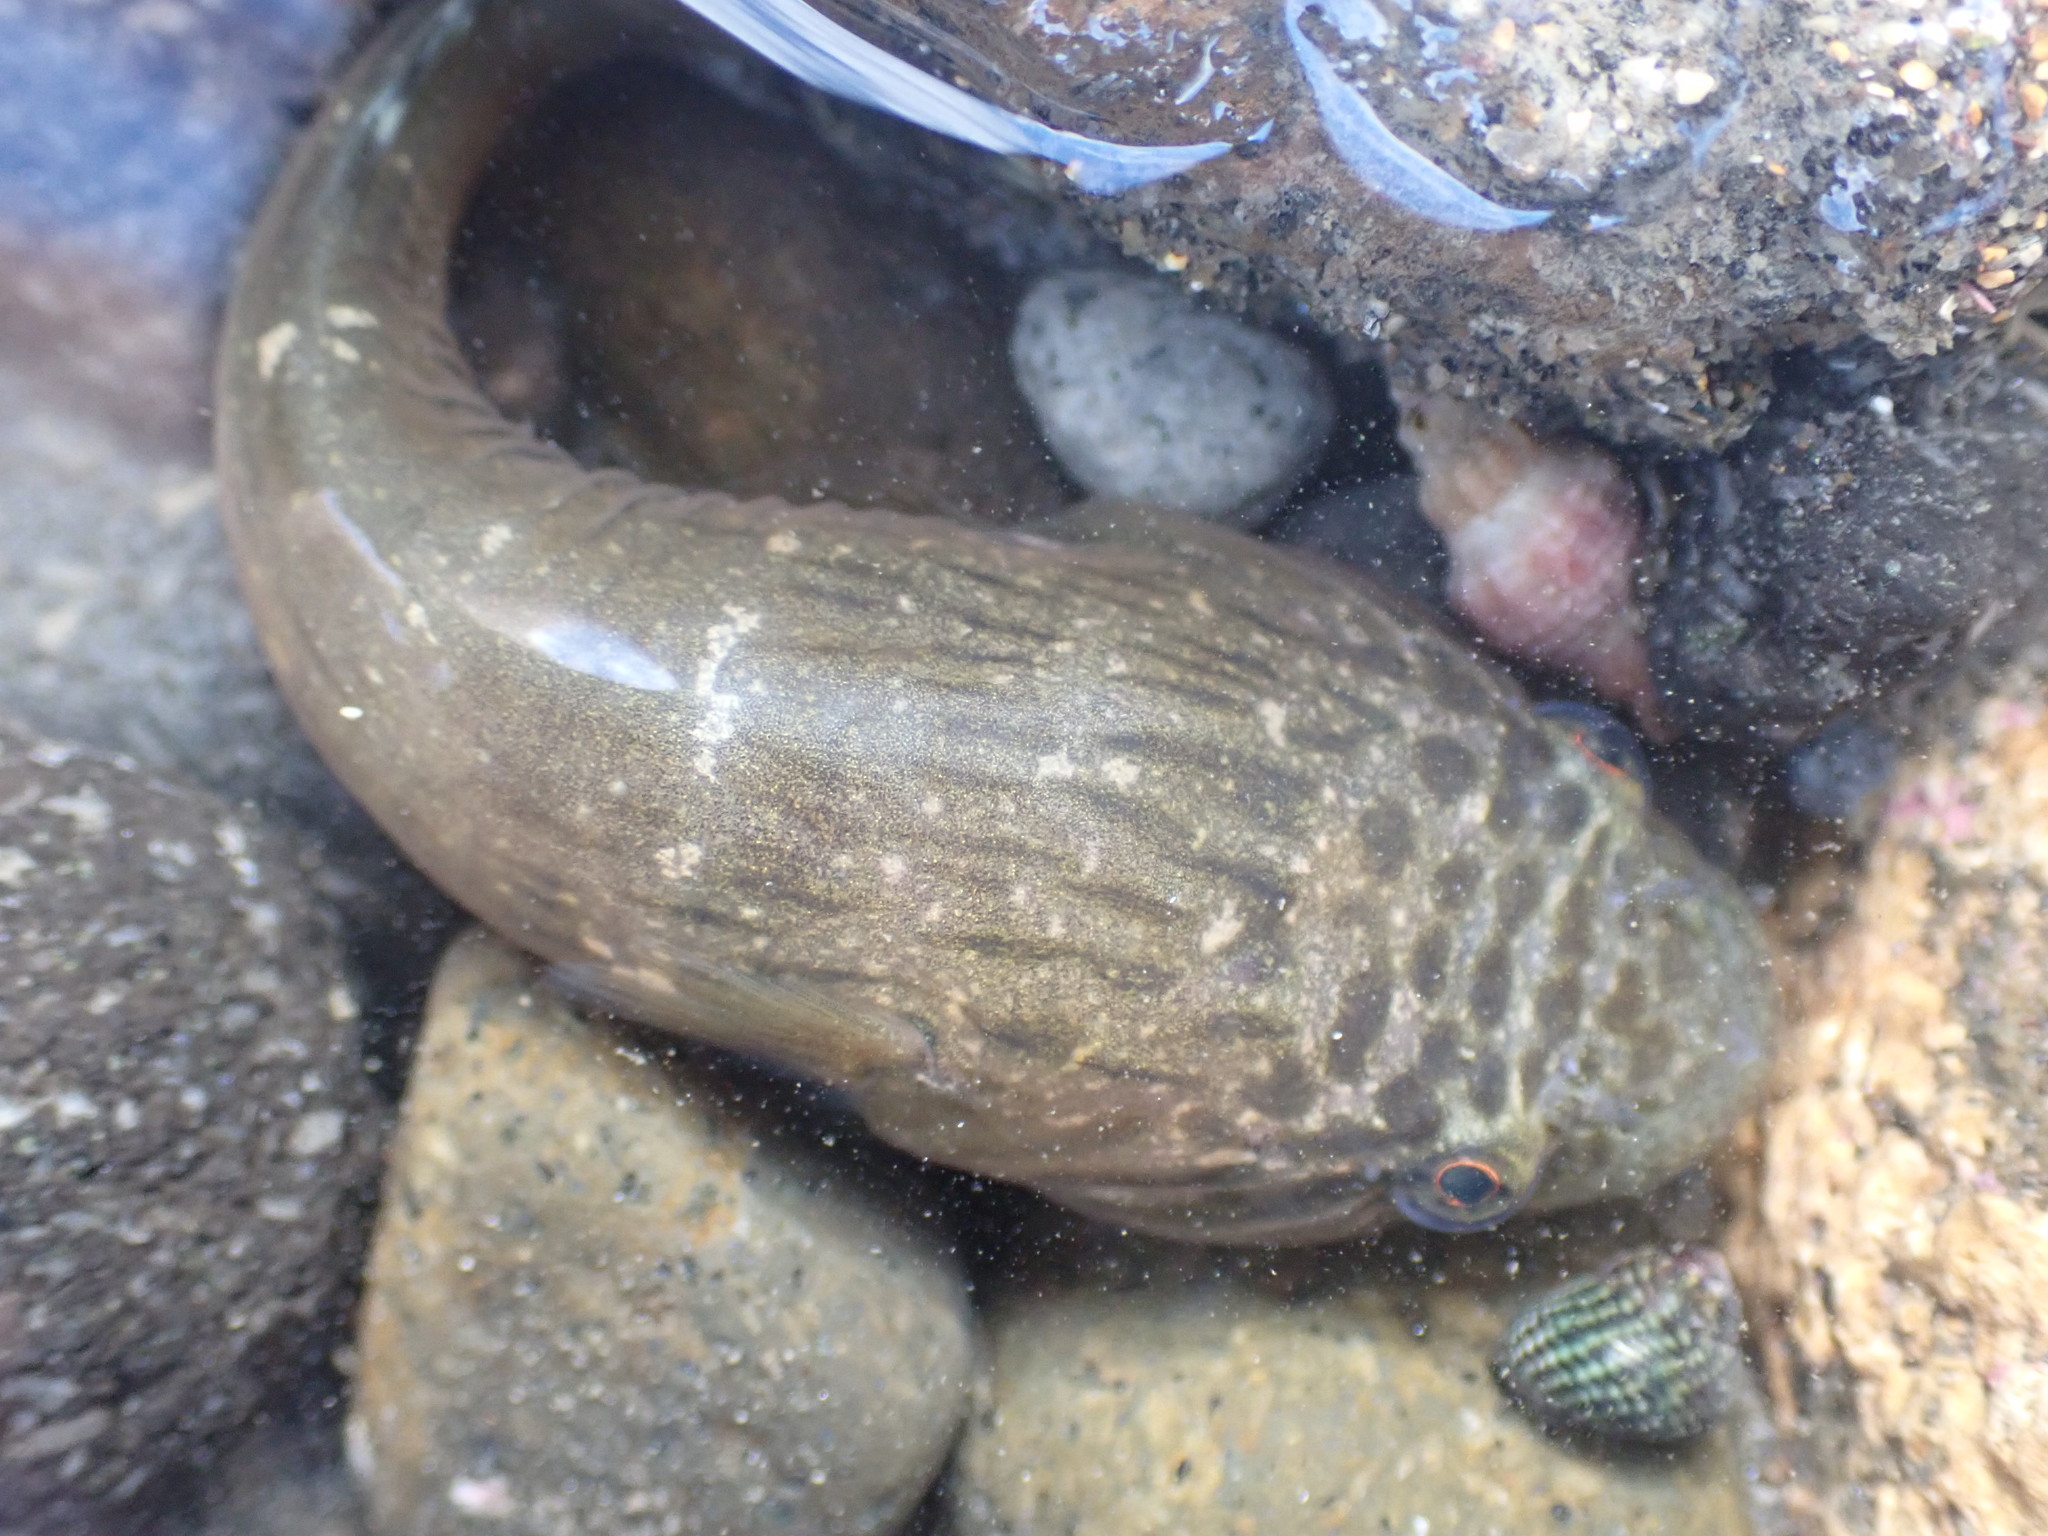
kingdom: Animalia
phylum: Chordata
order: Gobiesociformes
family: Gobiesocidae
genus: Trachelochismus
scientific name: Trachelochismus pinnulatus
